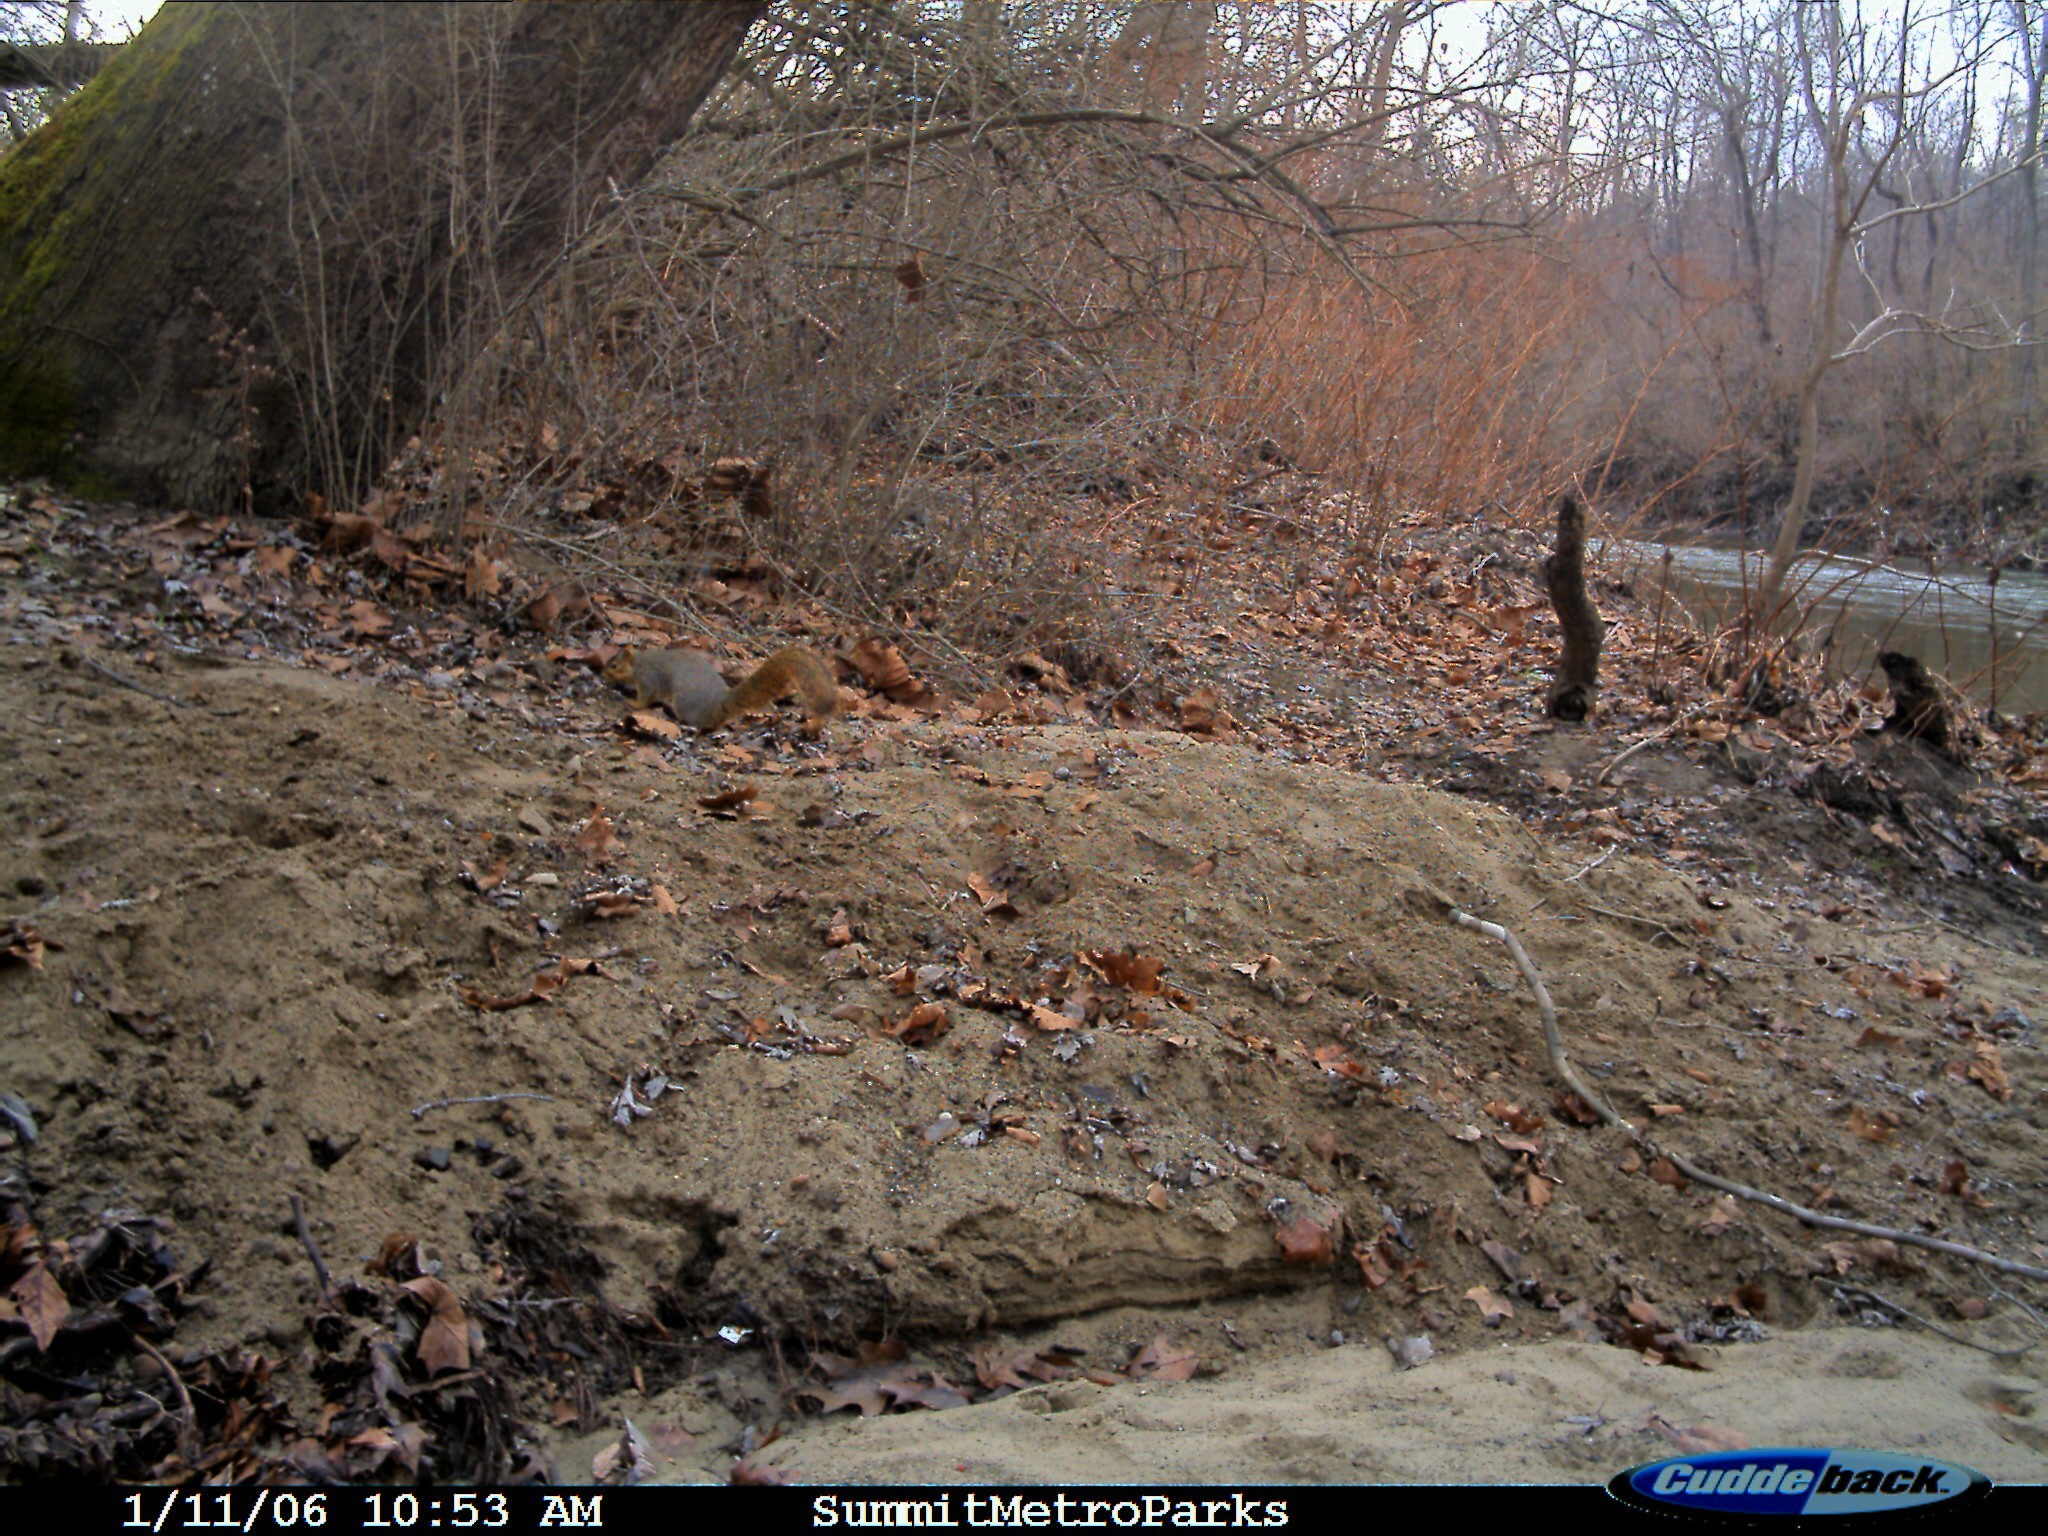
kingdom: Animalia
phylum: Chordata
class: Mammalia
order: Rodentia
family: Sciuridae
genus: Sciurus
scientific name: Sciurus niger
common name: Fox squirrel
